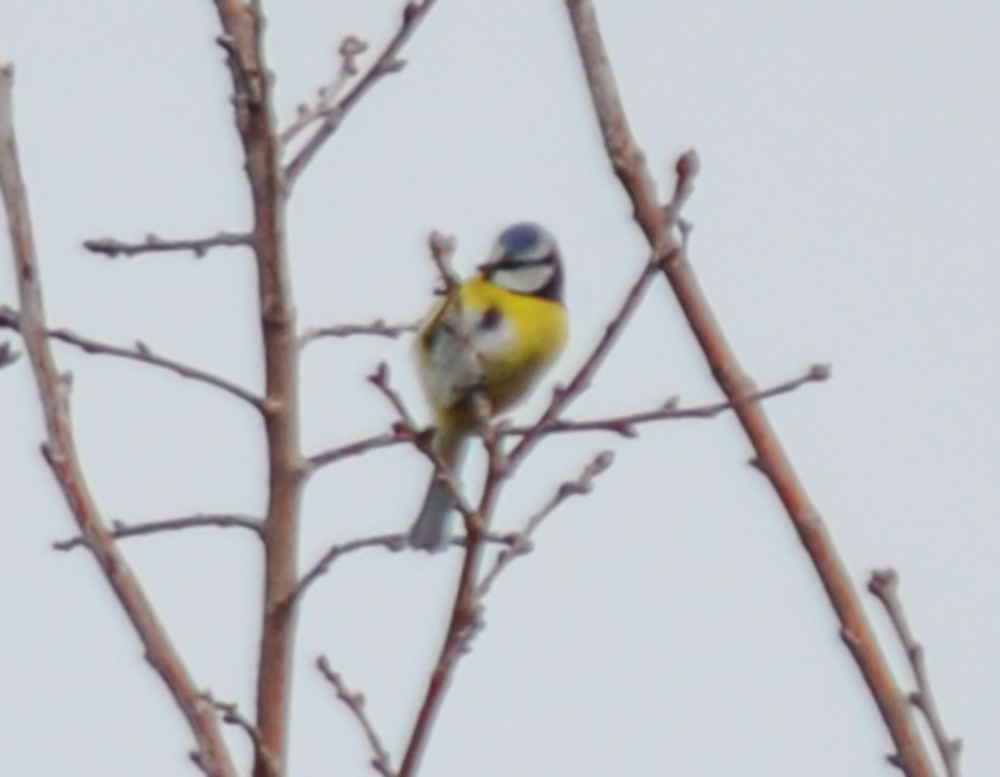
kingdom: Animalia
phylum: Chordata
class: Aves
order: Passeriformes
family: Paridae
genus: Cyanistes
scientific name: Cyanistes caeruleus
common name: Eurasian blue tit
